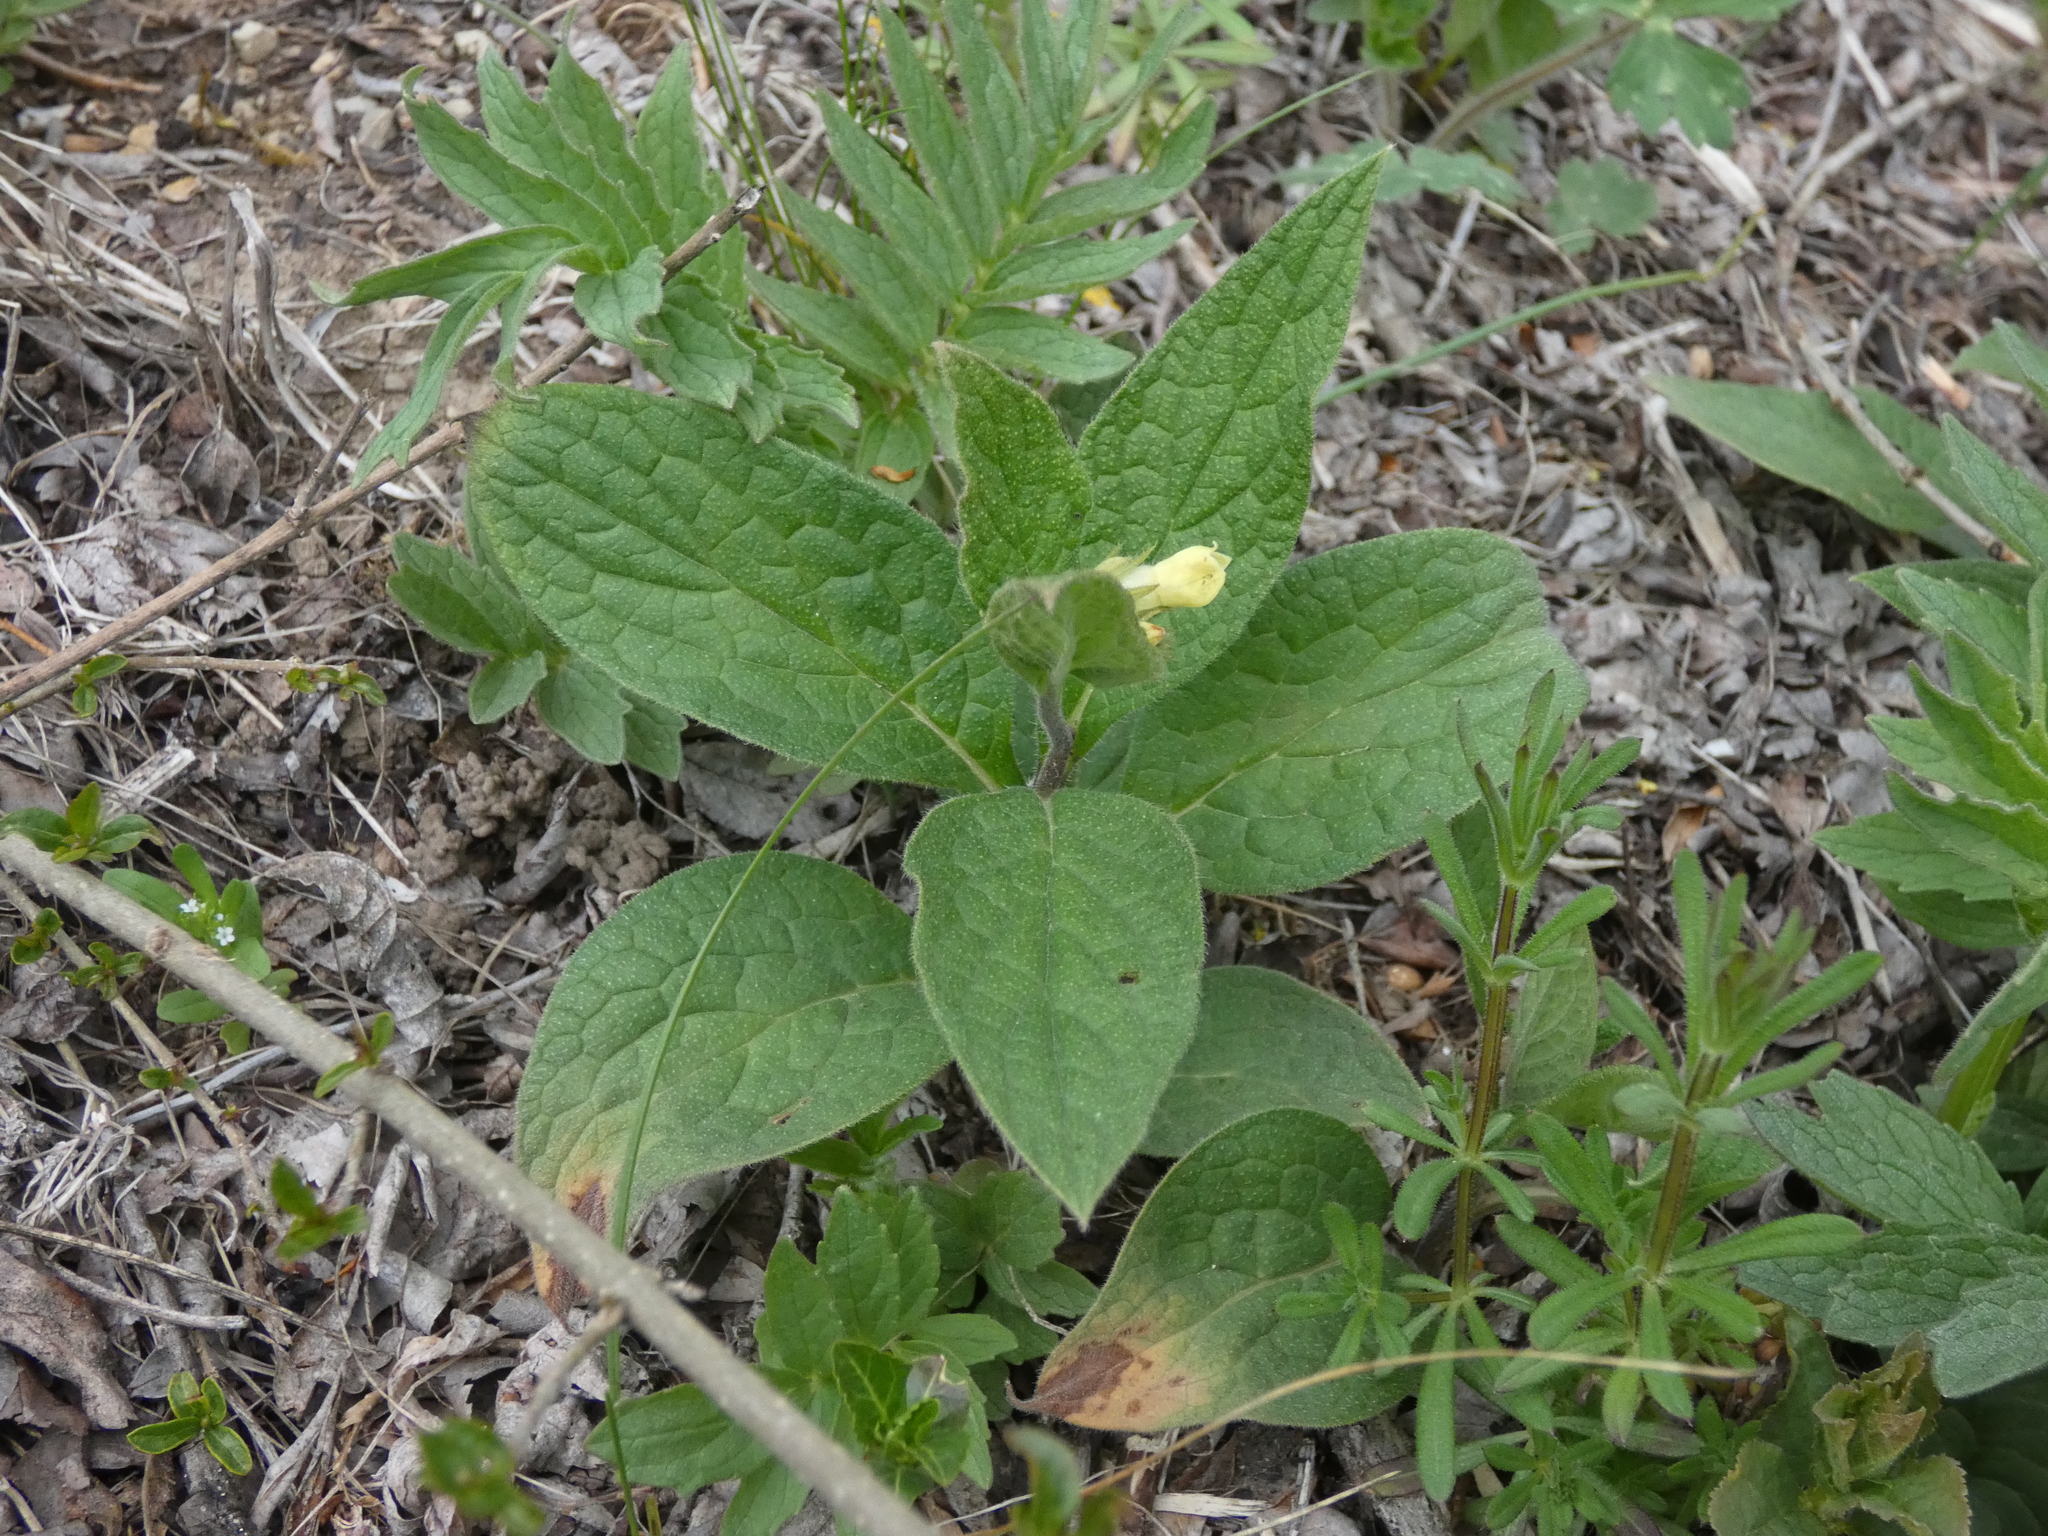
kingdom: Plantae
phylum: Tracheophyta
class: Magnoliopsida
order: Boraginales
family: Boraginaceae
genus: Symphytum
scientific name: Symphytum tuberosum
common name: Tuberous comfrey
